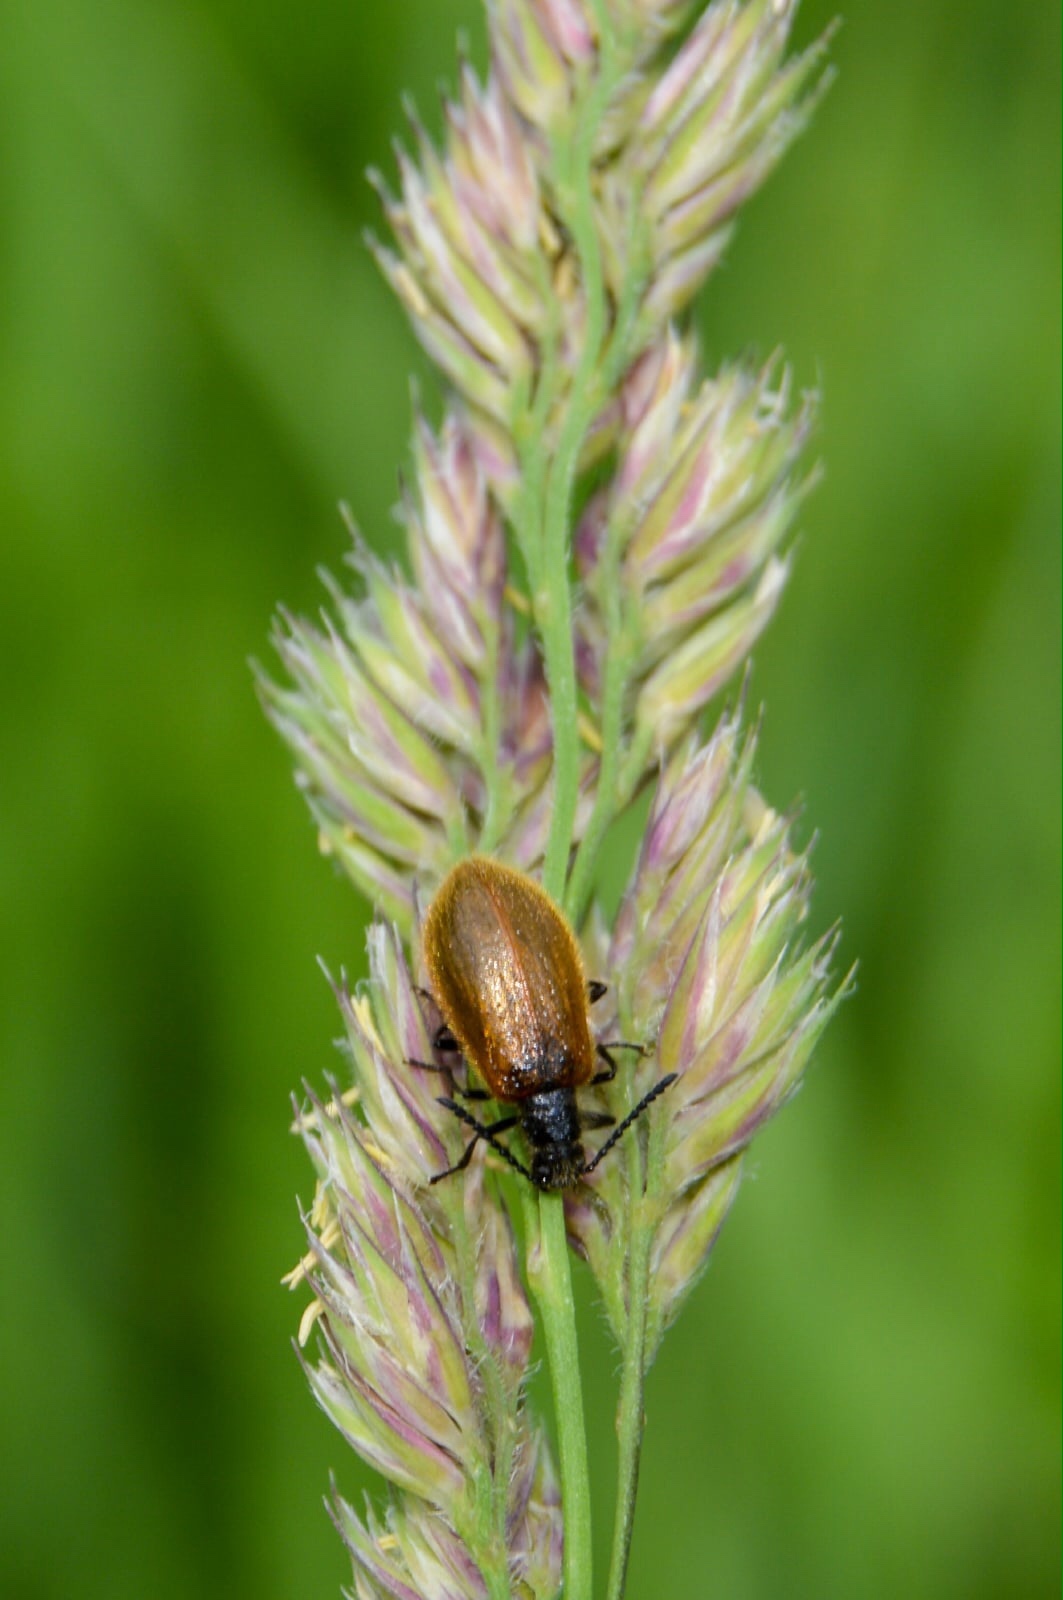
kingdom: Animalia
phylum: Arthropoda
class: Insecta
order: Coleoptera
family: Tenebrionidae
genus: Lagria
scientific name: Lagria hirta
